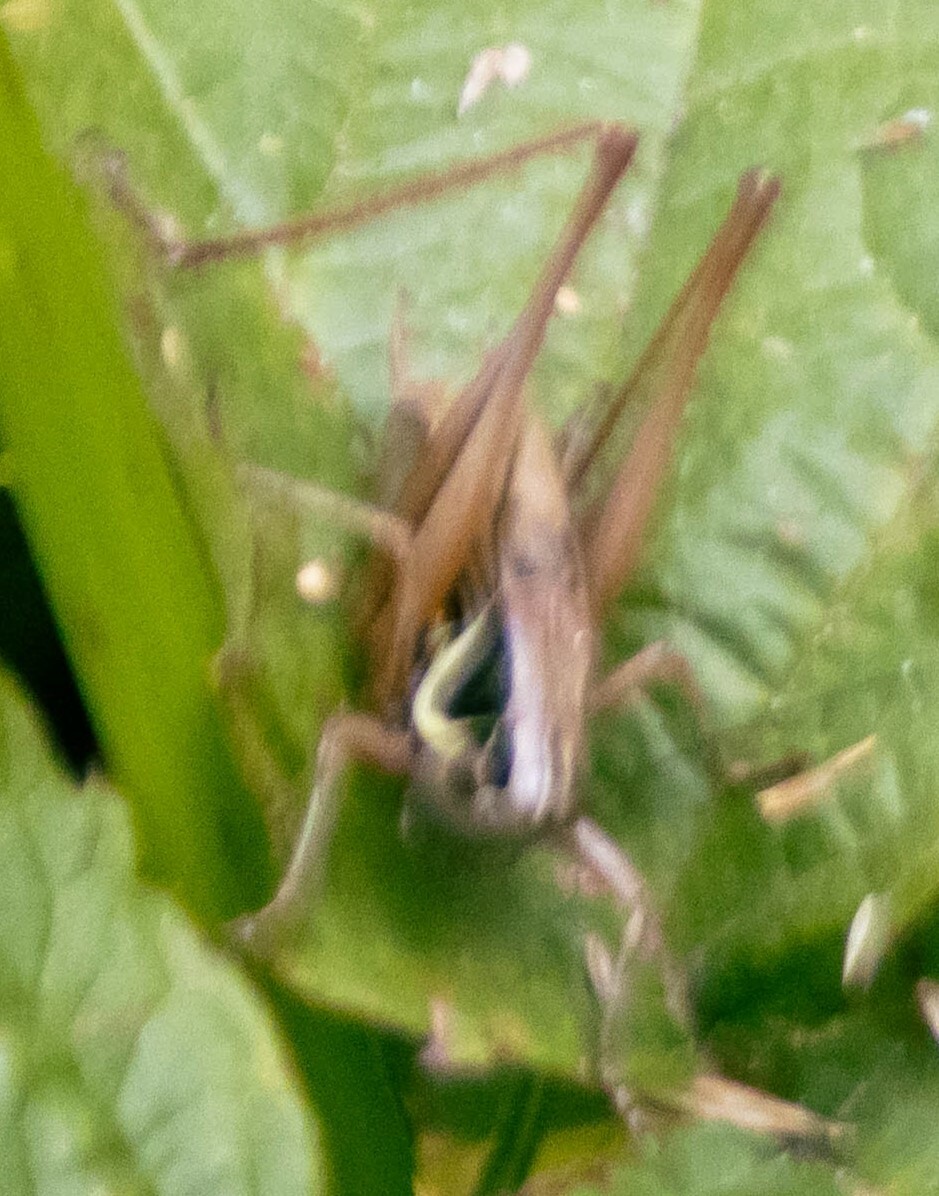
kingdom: Animalia
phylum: Arthropoda
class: Insecta
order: Orthoptera
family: Tettigoniidae
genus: Roeseliana
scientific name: Roeseliana roeselii
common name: Roesel's bush cricket
